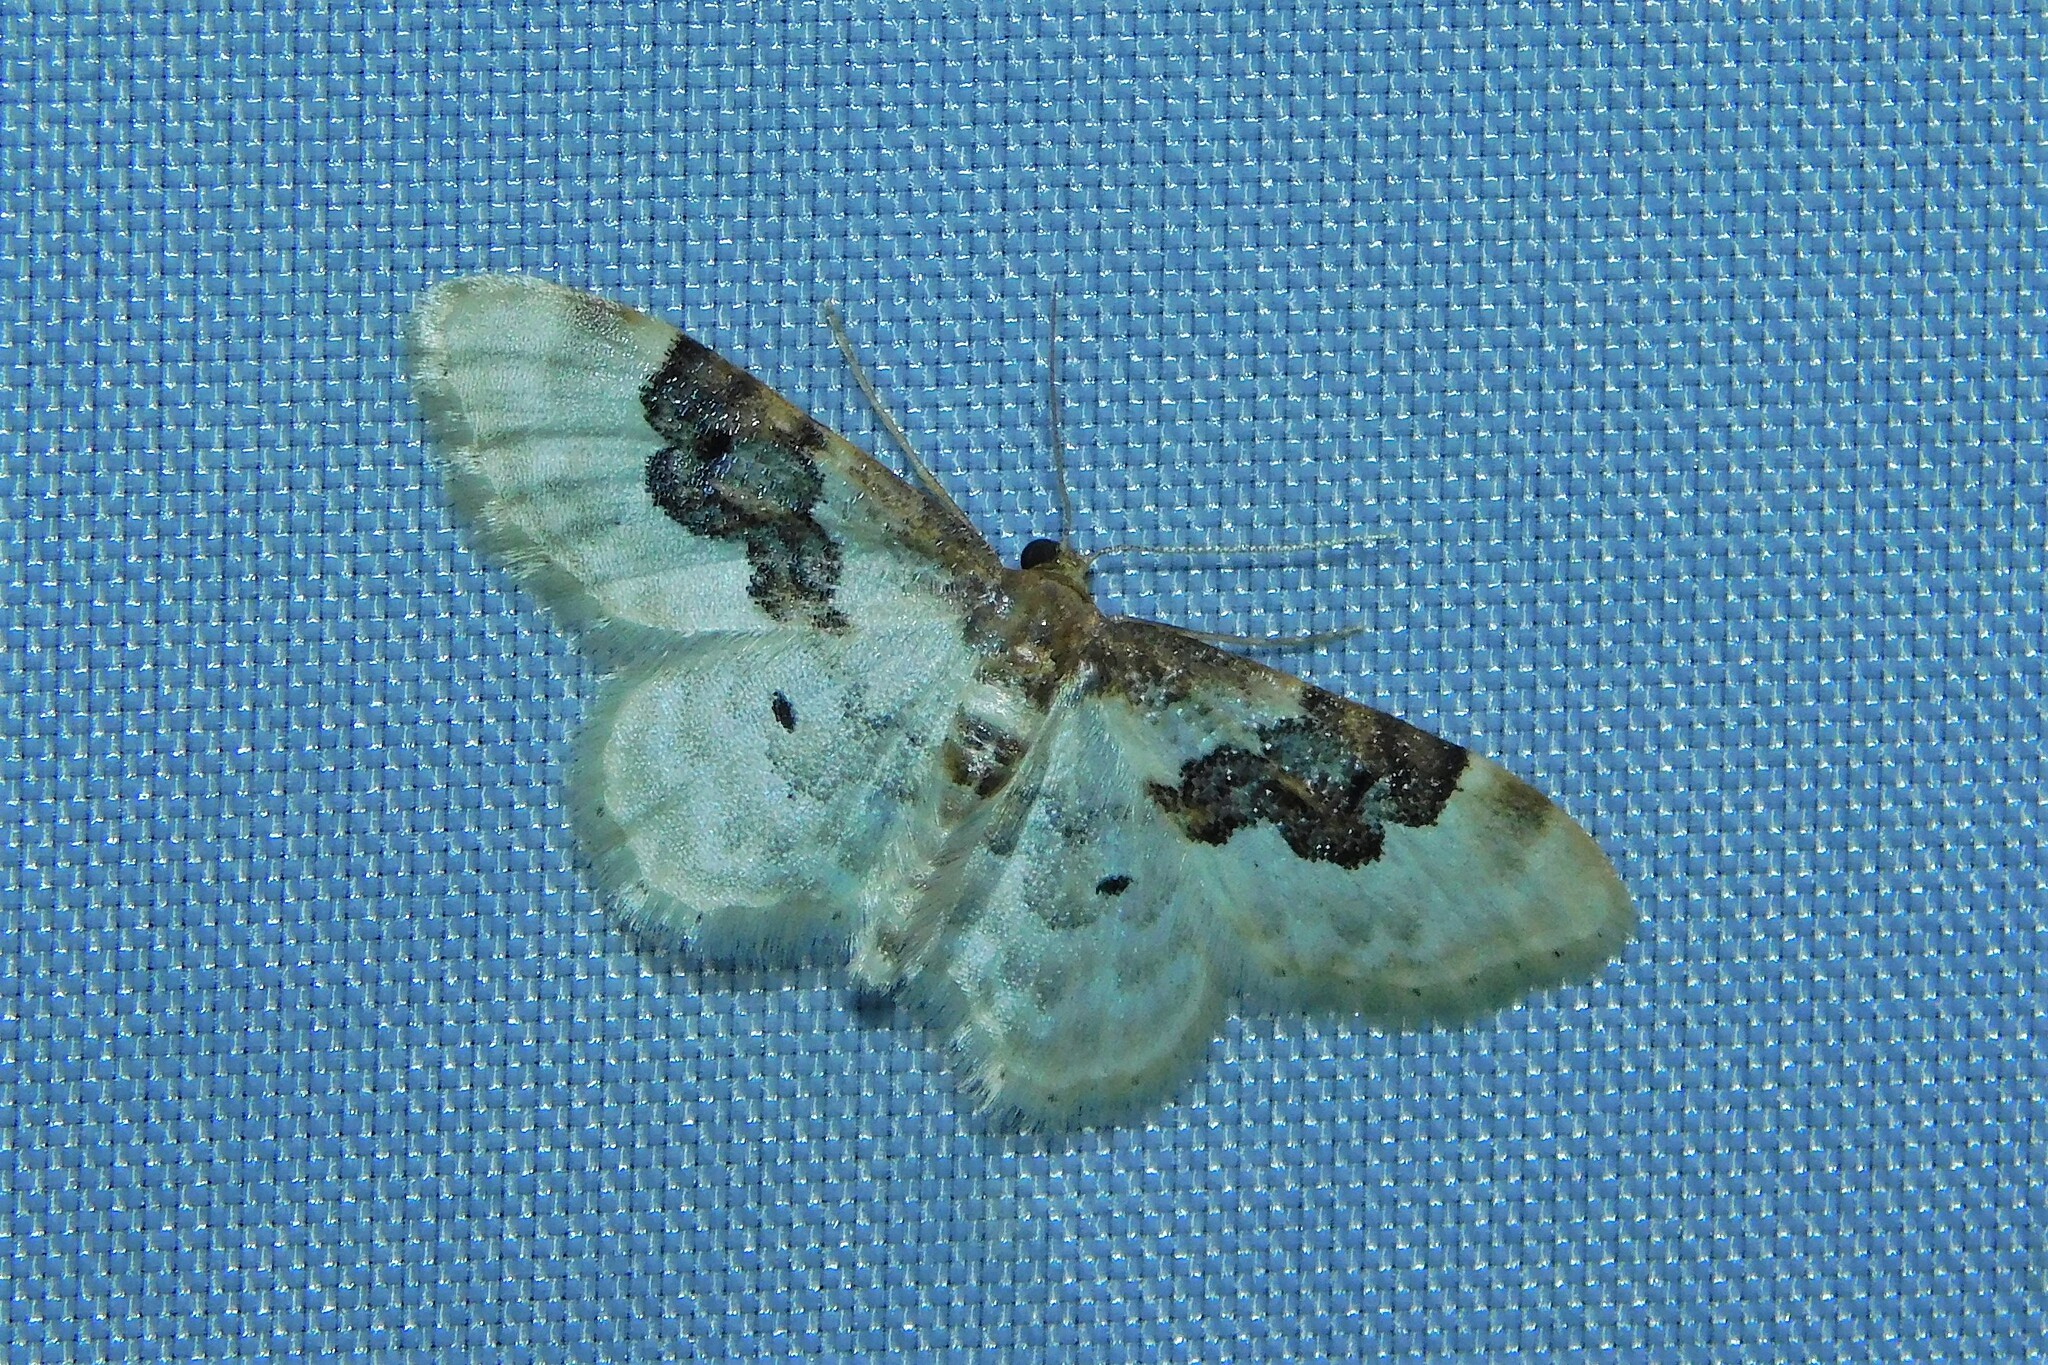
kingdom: Animalia
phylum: Arthropoda
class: Insecta
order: Lepidoptera
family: Geometridae
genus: Idaea
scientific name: Idaea rusticata
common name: Least carpet
